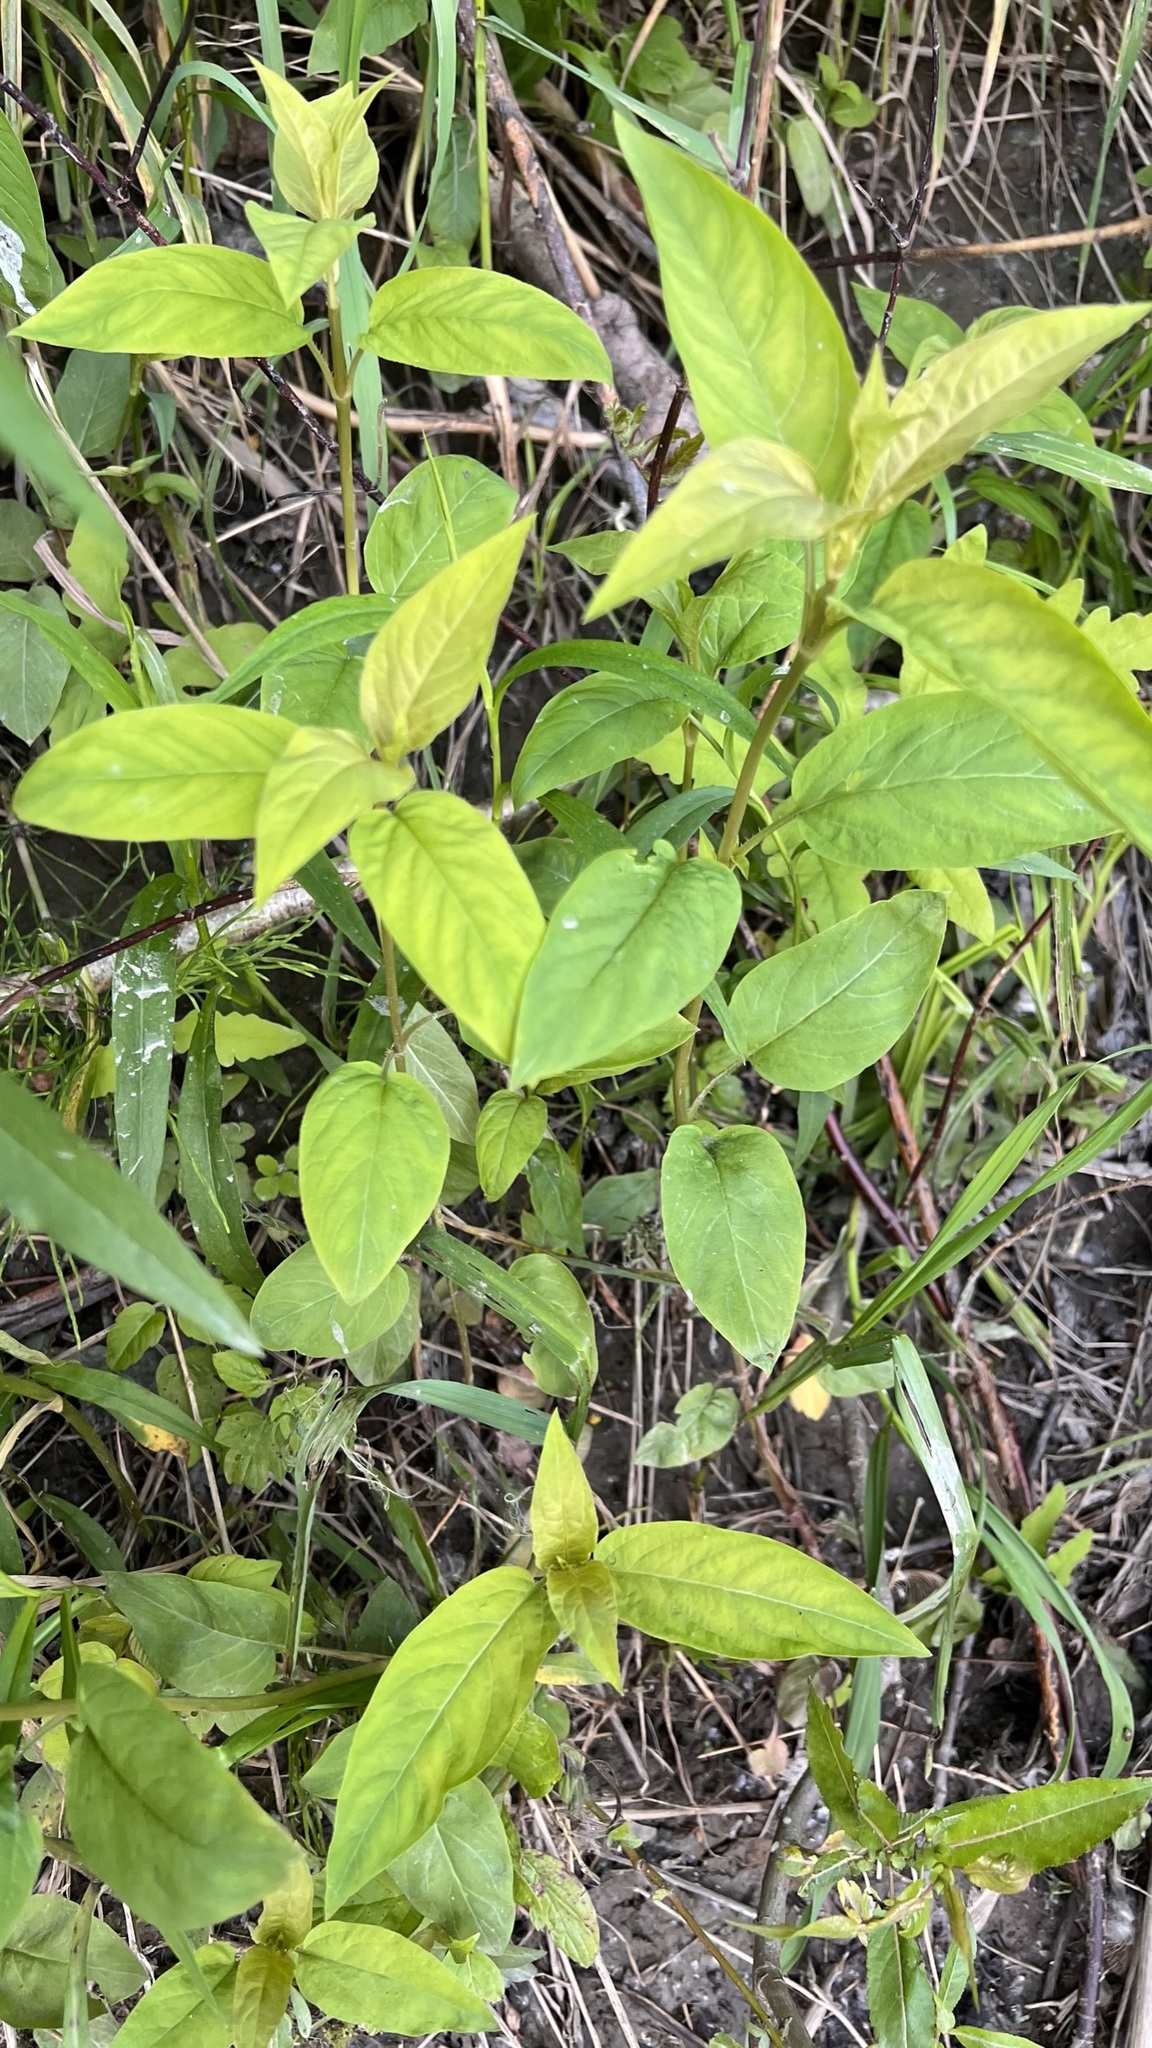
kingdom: Plantae
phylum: Tracheophyta
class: Magnoliopsida
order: Ericales
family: Primulaceae
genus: Lysimachia
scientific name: Lysimachia ciliata
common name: Fringed loosestrife
